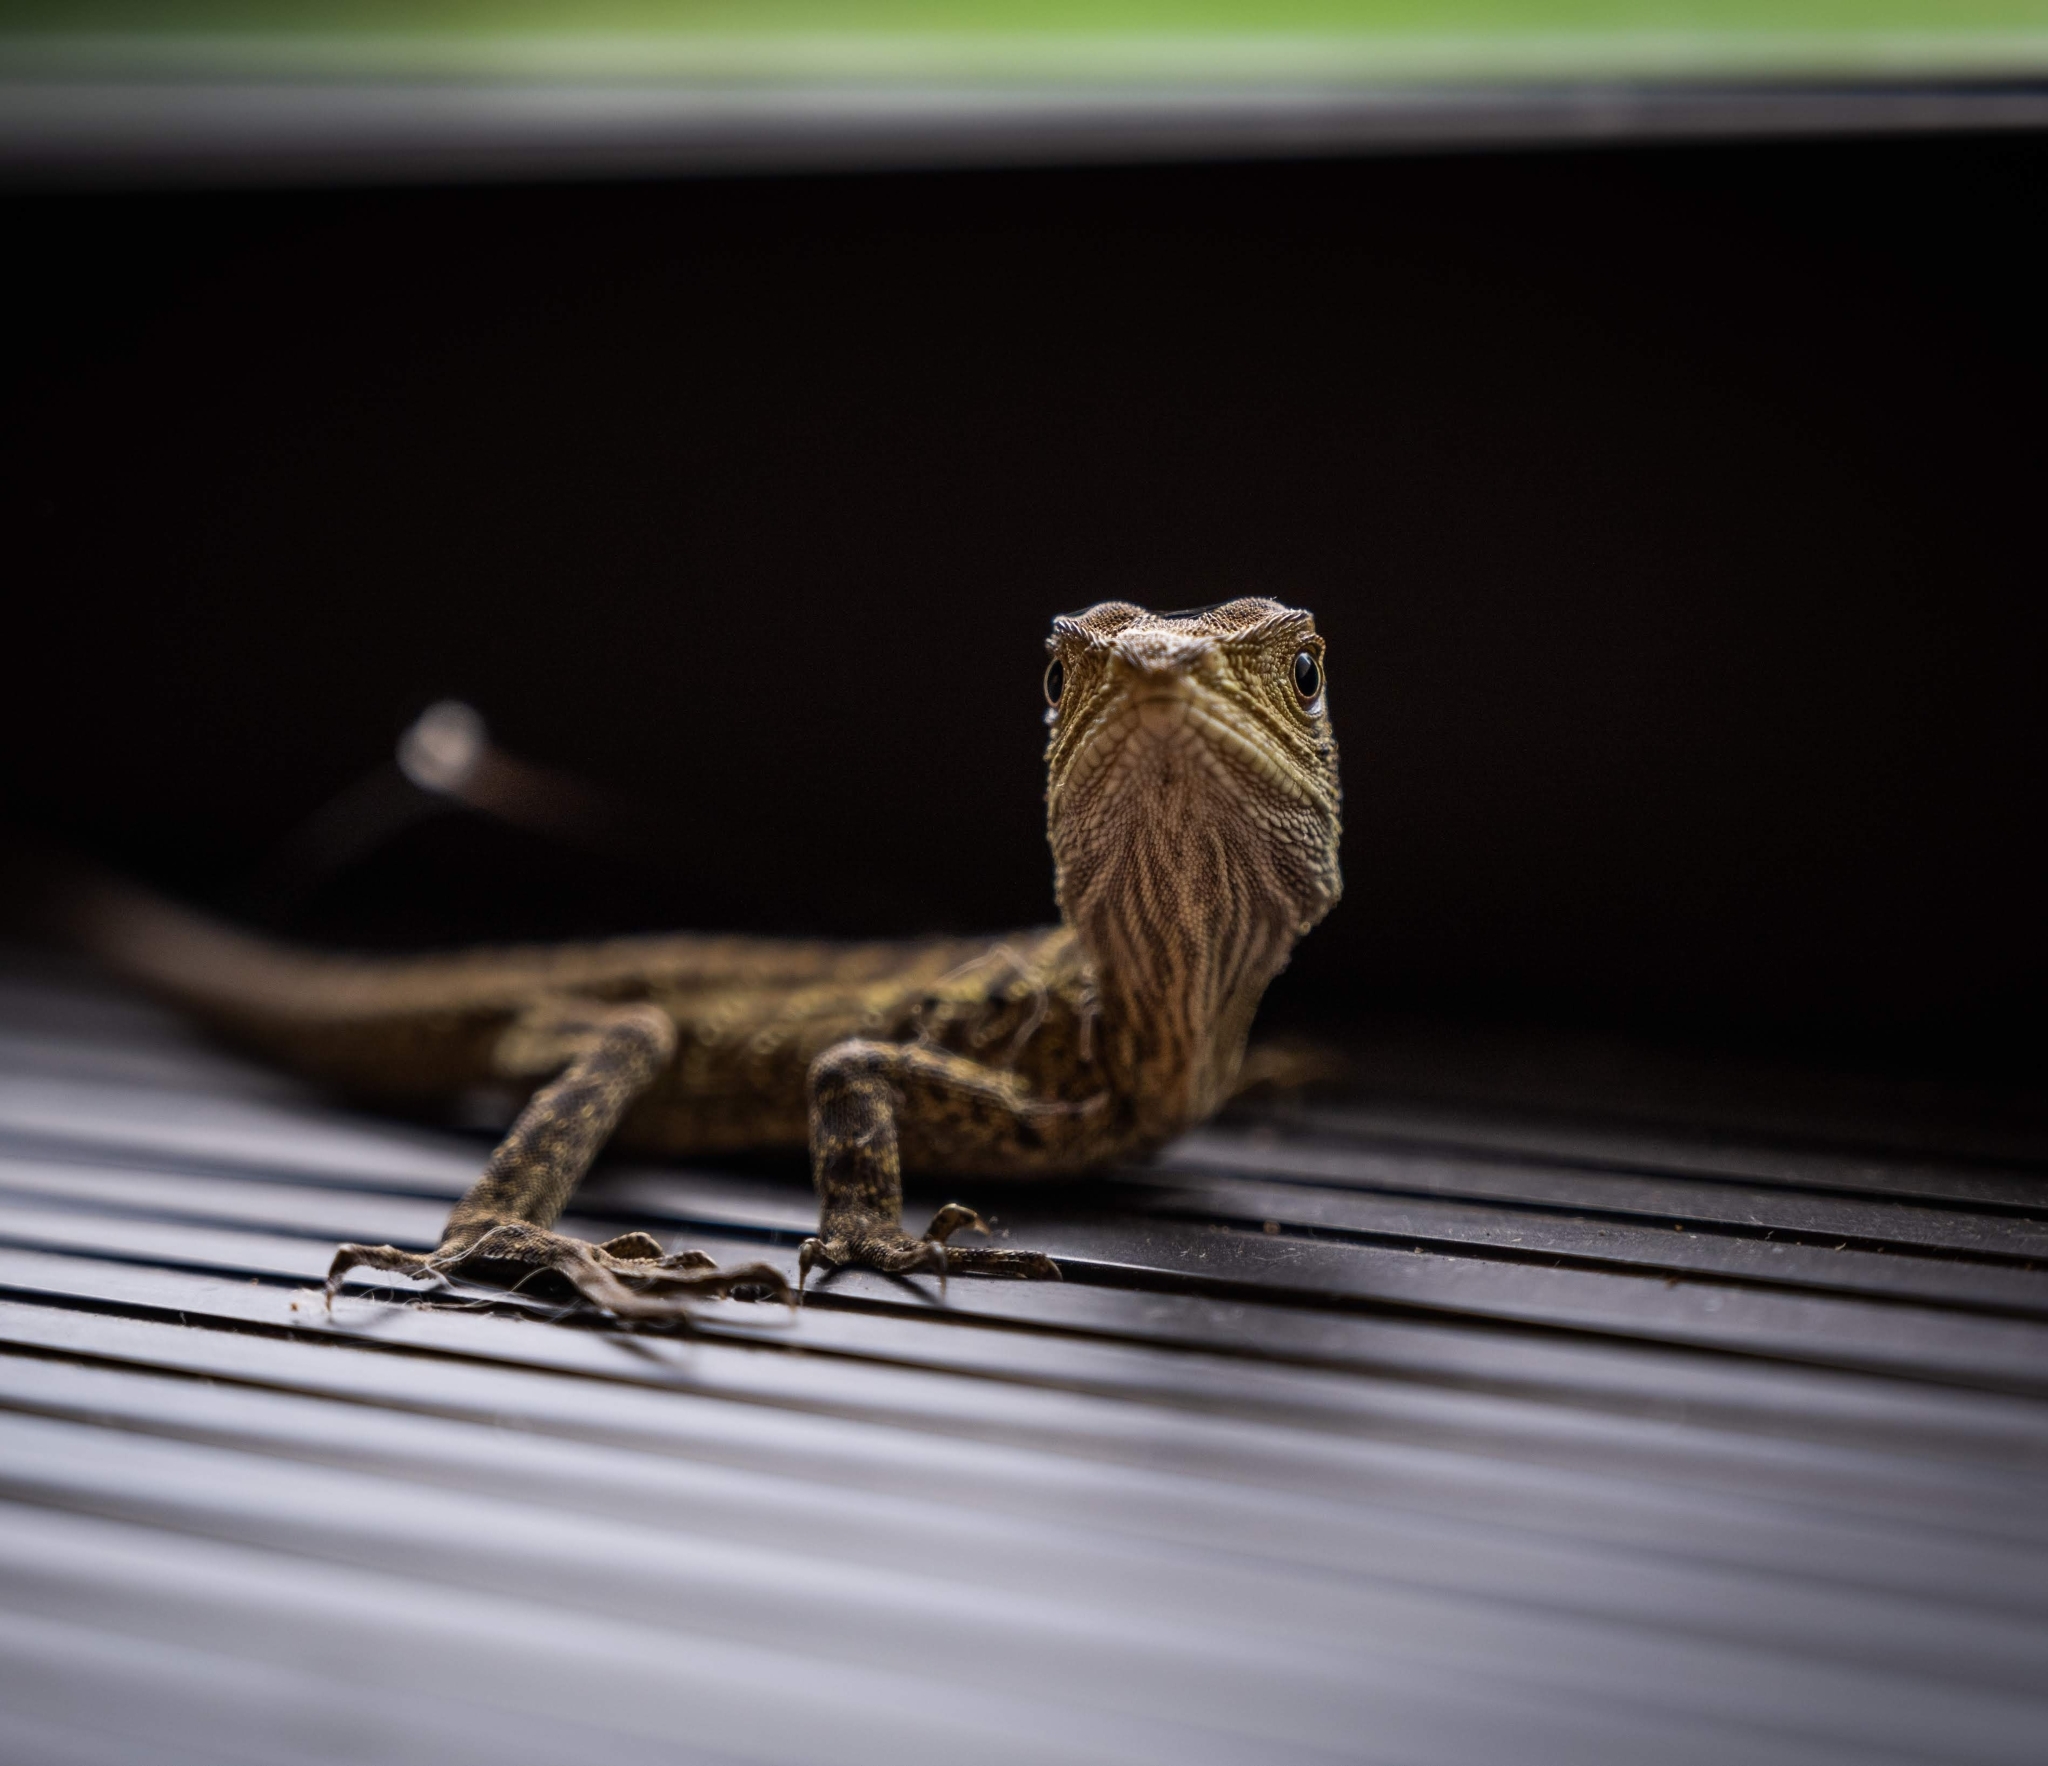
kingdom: Animalia
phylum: Chordata
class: Squamata
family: Agamidae
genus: Intellagama
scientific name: Intellagama lesueurii
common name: Eastern water dragon
